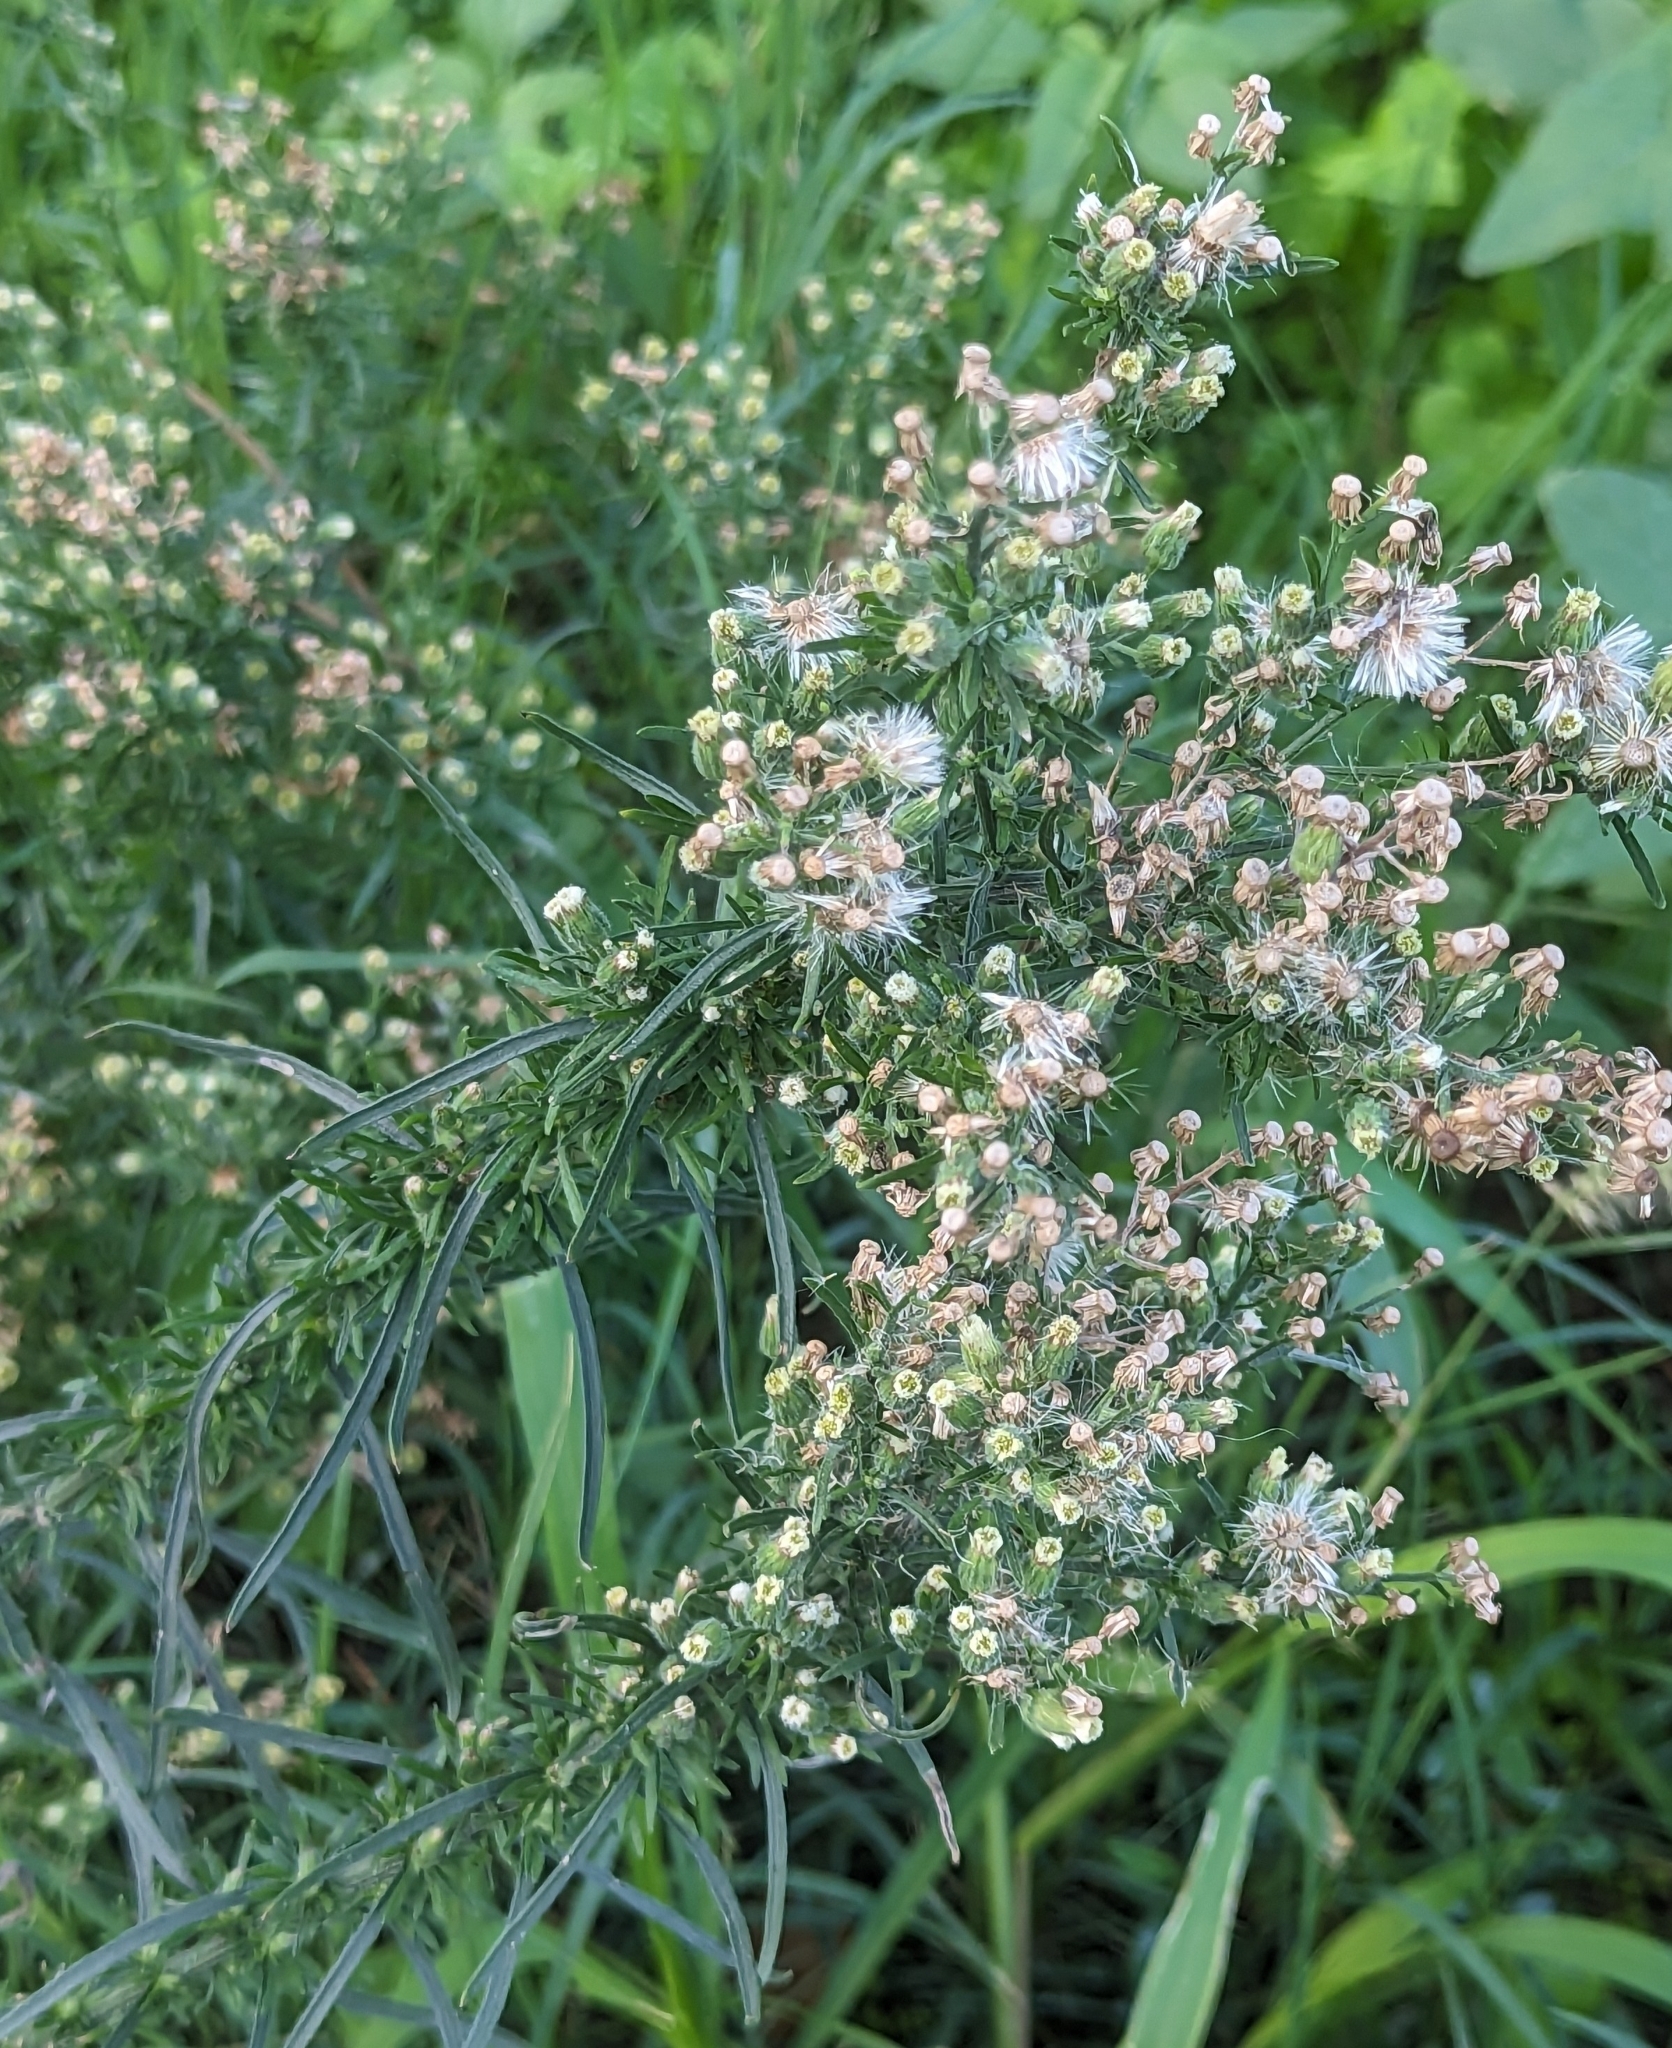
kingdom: Plantae
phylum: Tracheophyta
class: Magnoliopsida
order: Asterales
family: Asteraceae
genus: Erigeron
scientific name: Erigeron bonariensis
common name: Argentine fleabane
